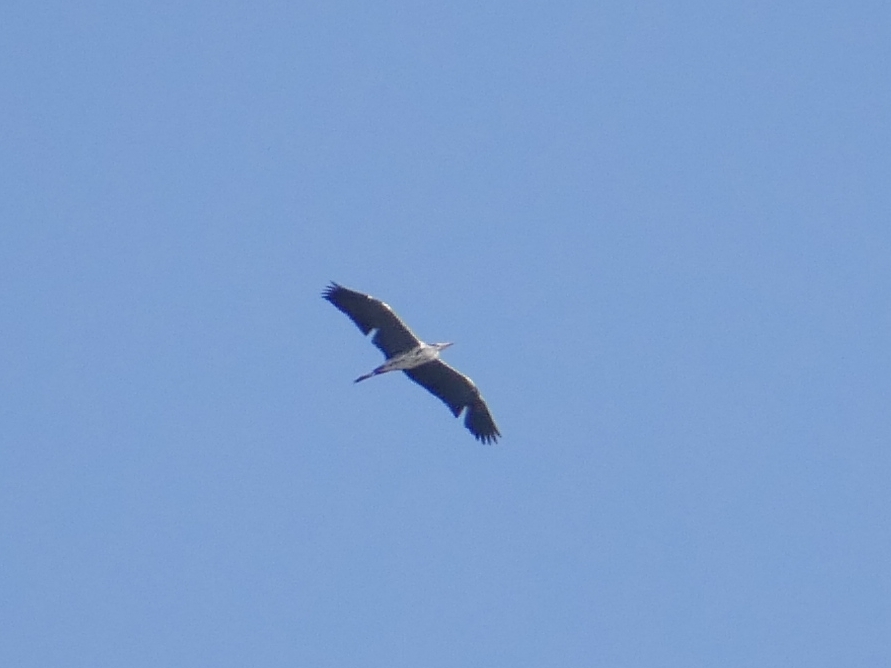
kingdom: Animalia
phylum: Chordata
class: Aves
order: Pelecaniformes
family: Ardeidae
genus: Ardea
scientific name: Ardea cinerea
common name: Grey heron
